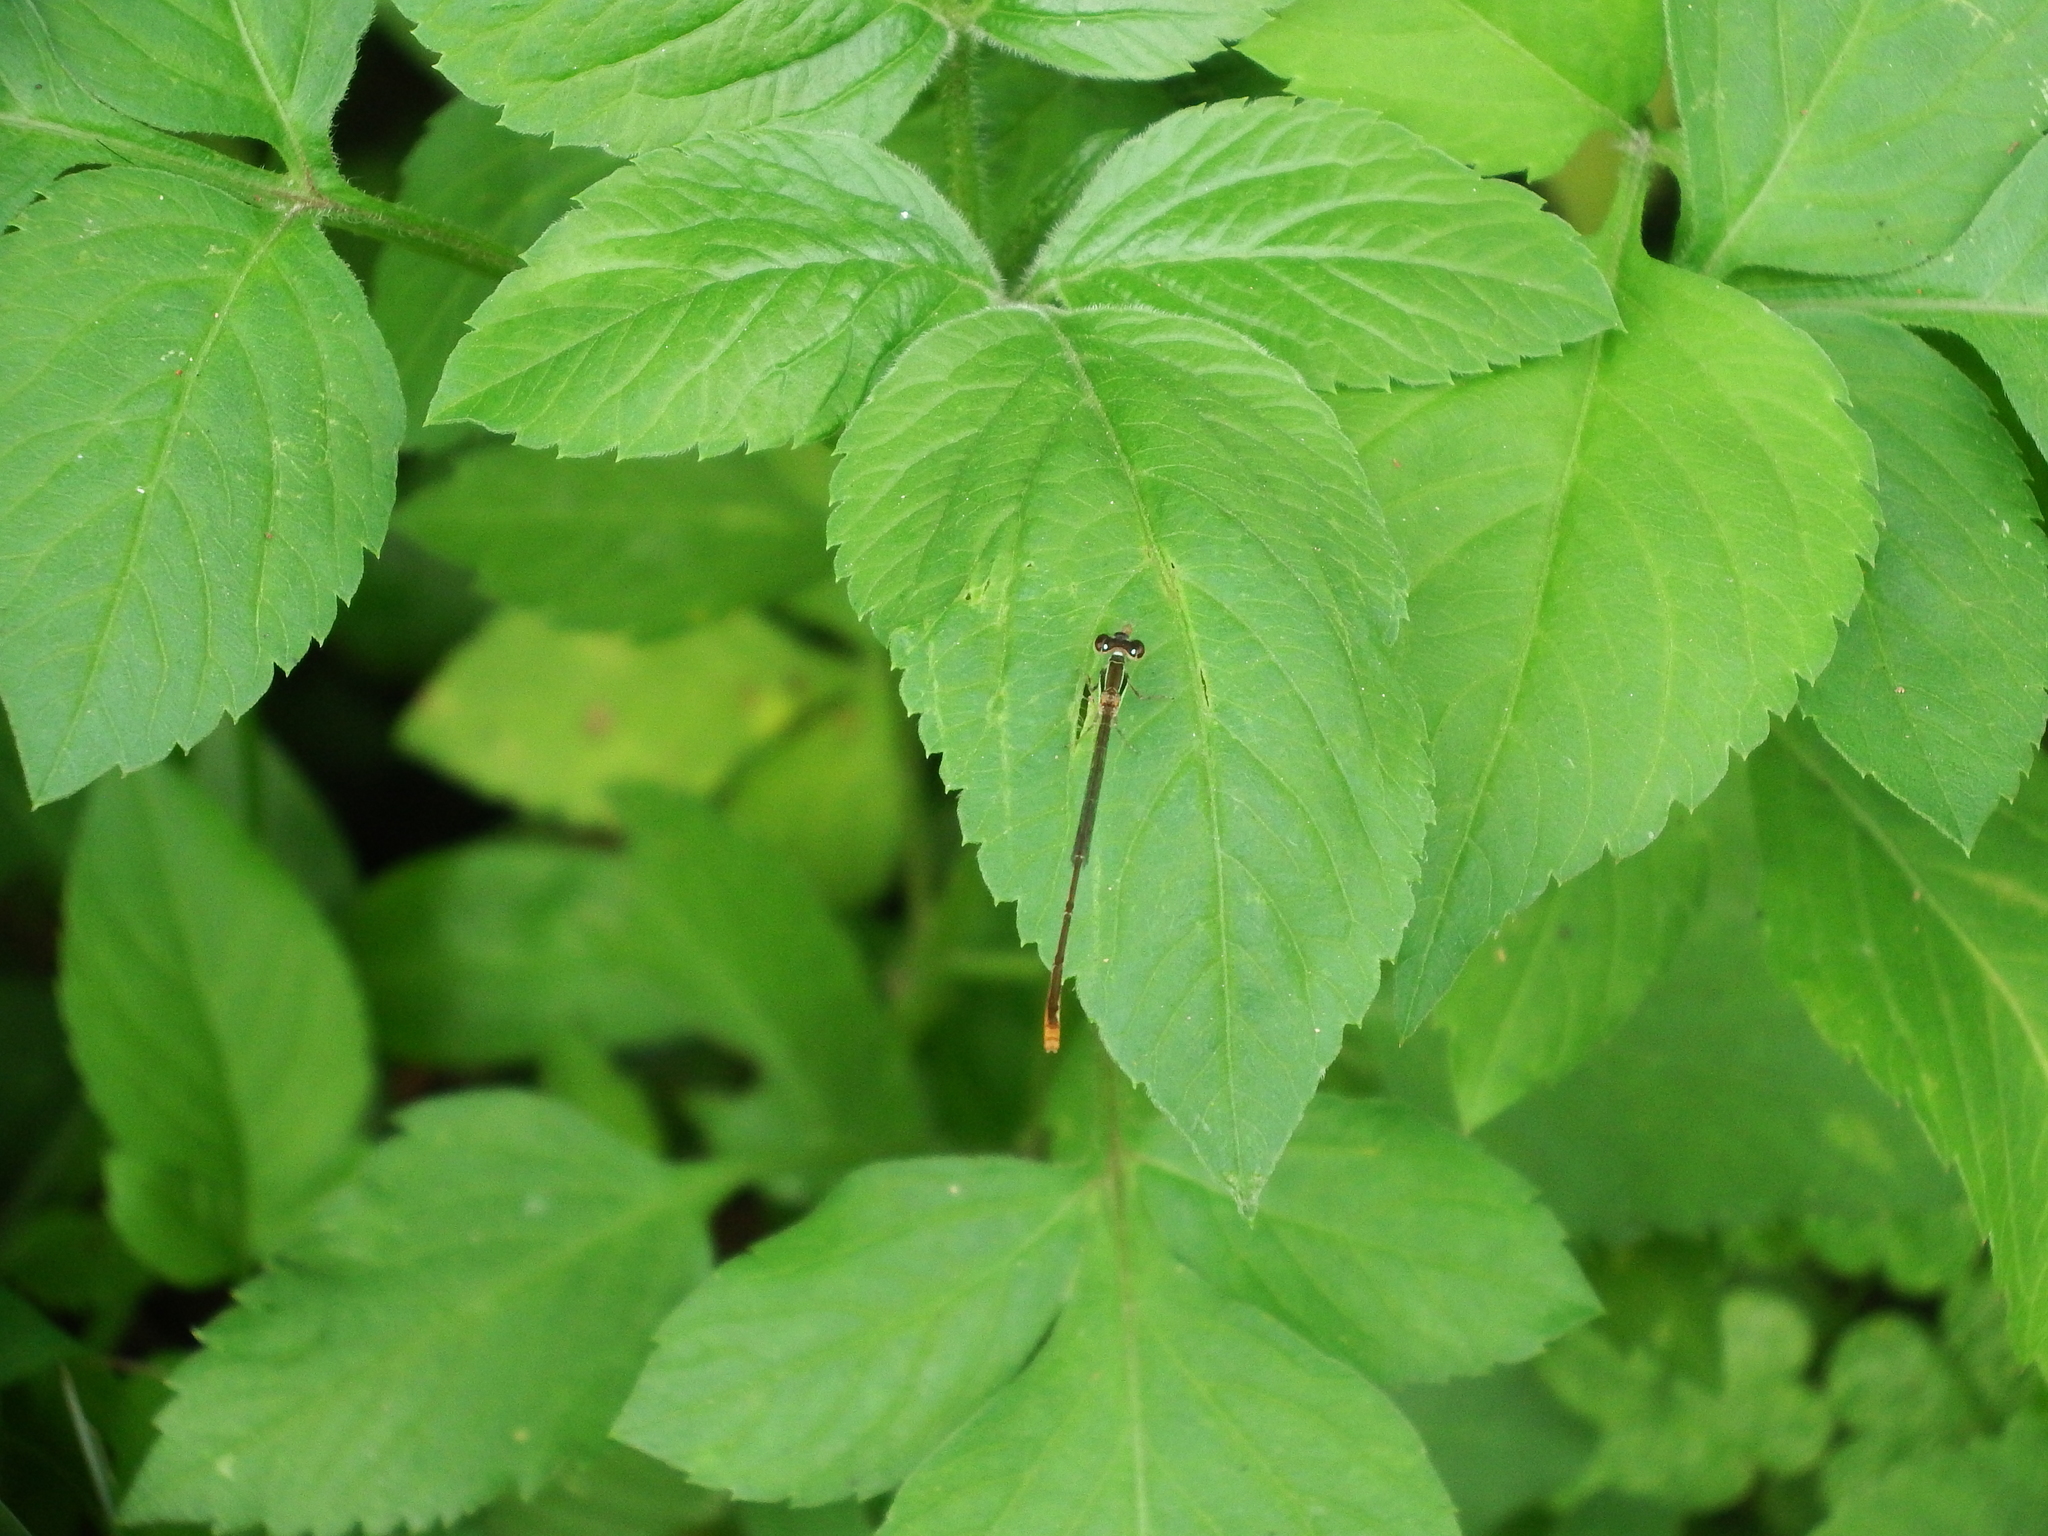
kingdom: Animalia
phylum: Arthropoda
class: Insecta
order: Odonata
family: Coenagrionidae
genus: Agriocnemis
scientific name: Agriocnemis pygmaea
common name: Pygmy wisp
